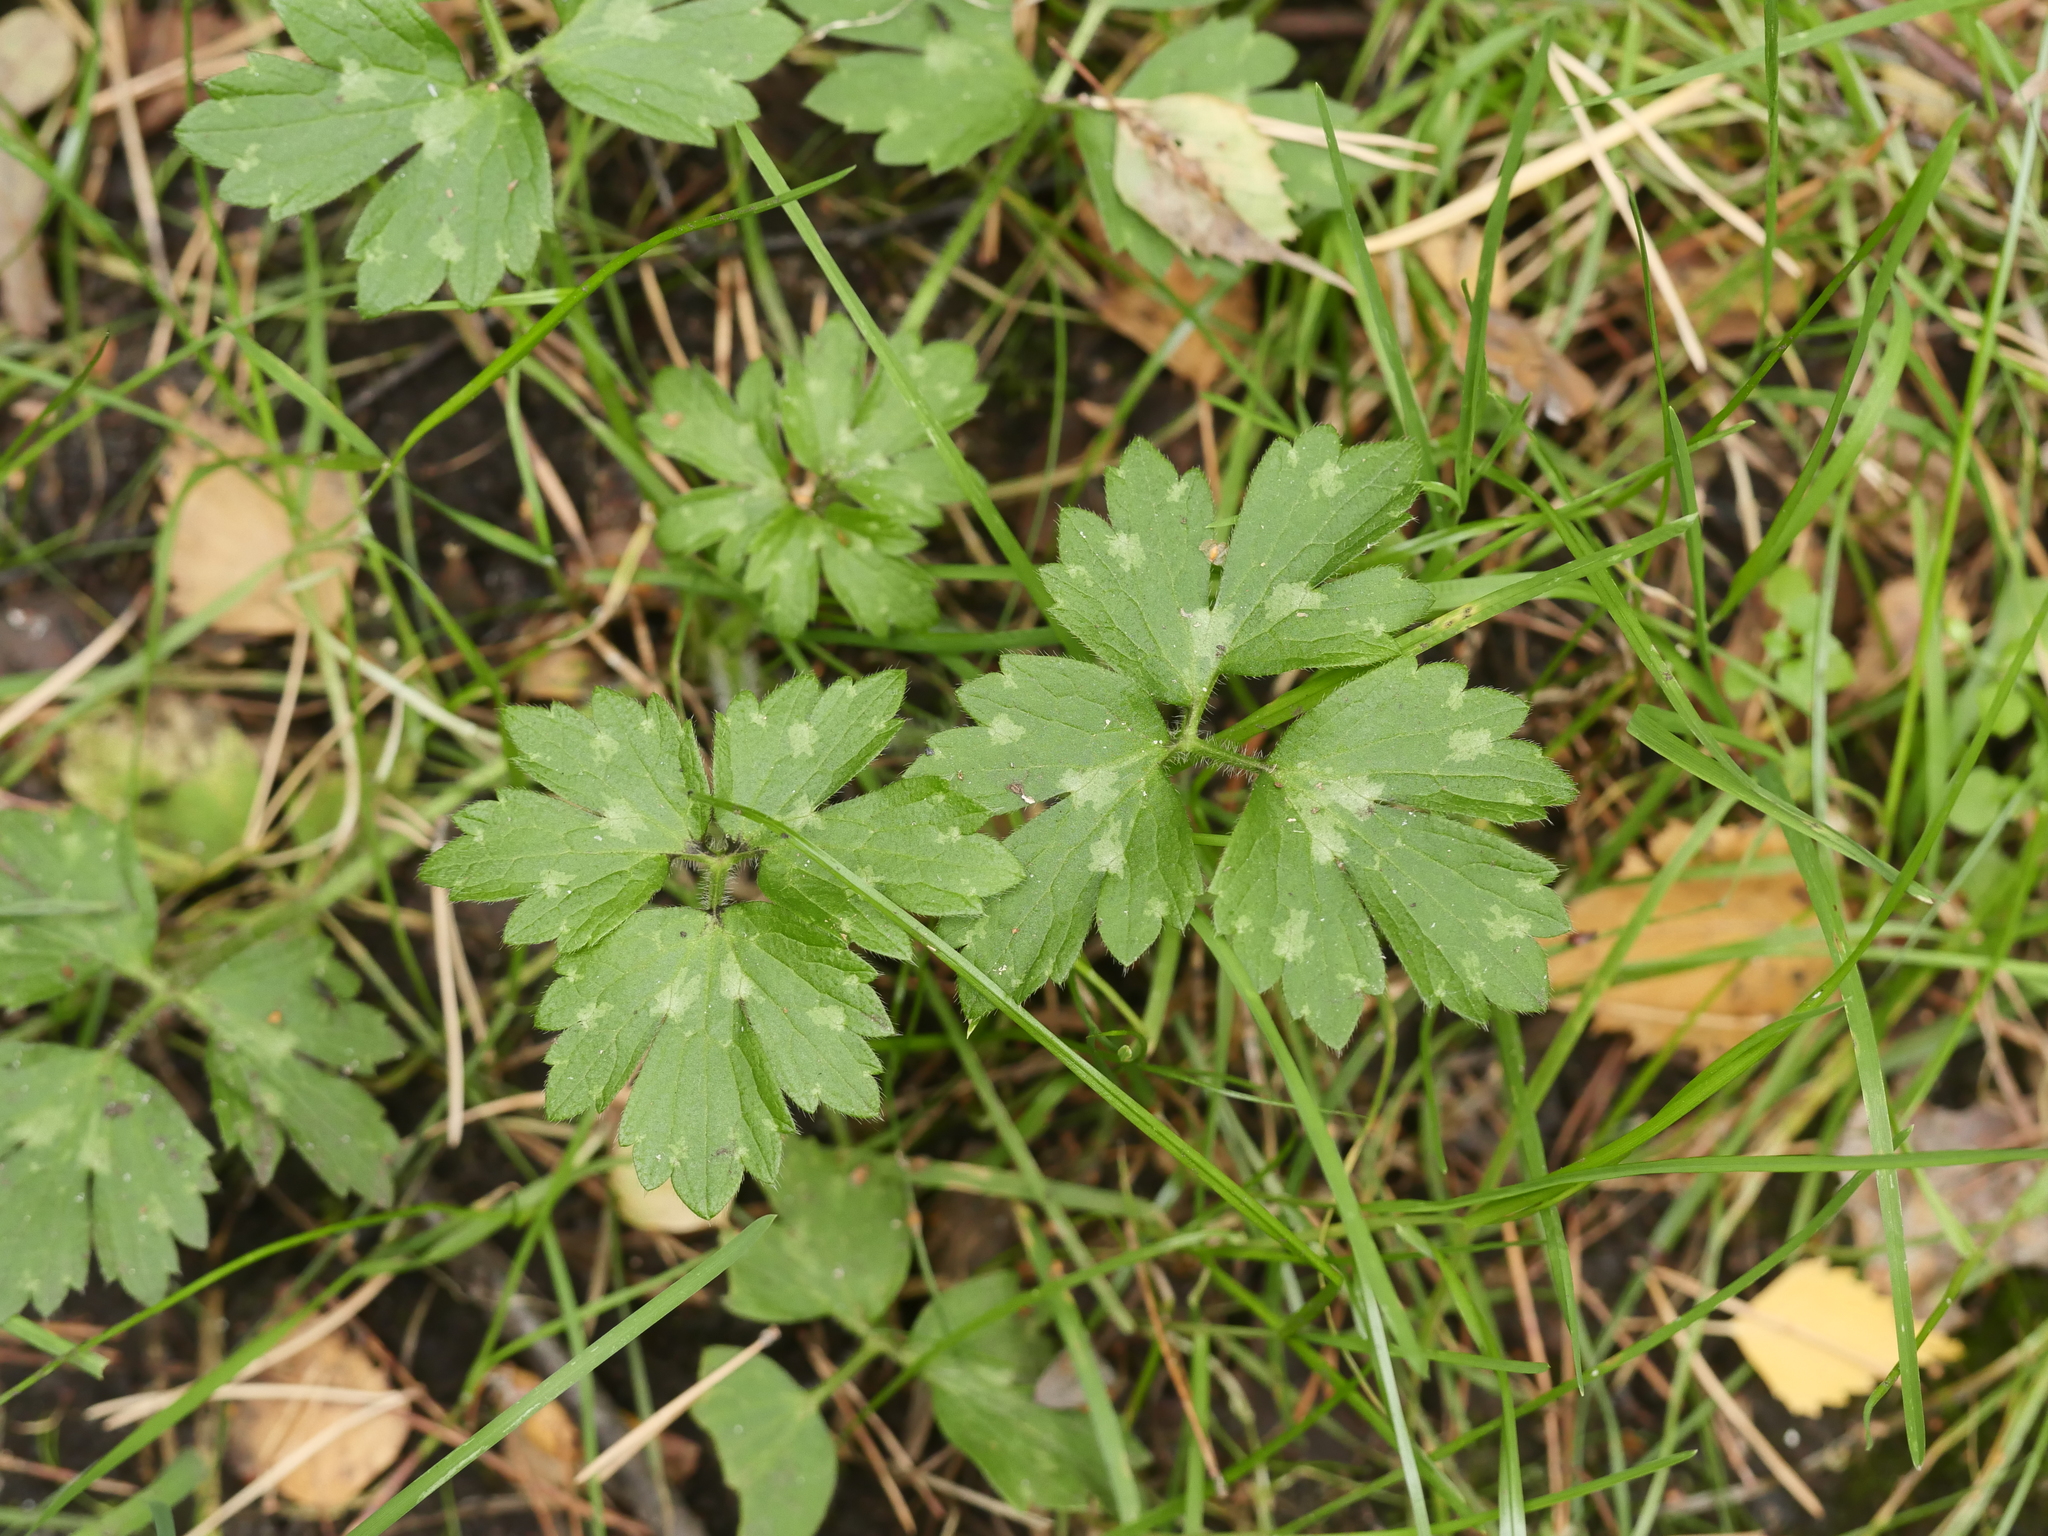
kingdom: Plantae
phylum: Tracheophyta
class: Magnoliopsida
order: Ranunculales
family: Ranunculaceae
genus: Ranunculus
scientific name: Ranunculus repens
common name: Creeping buttercup
